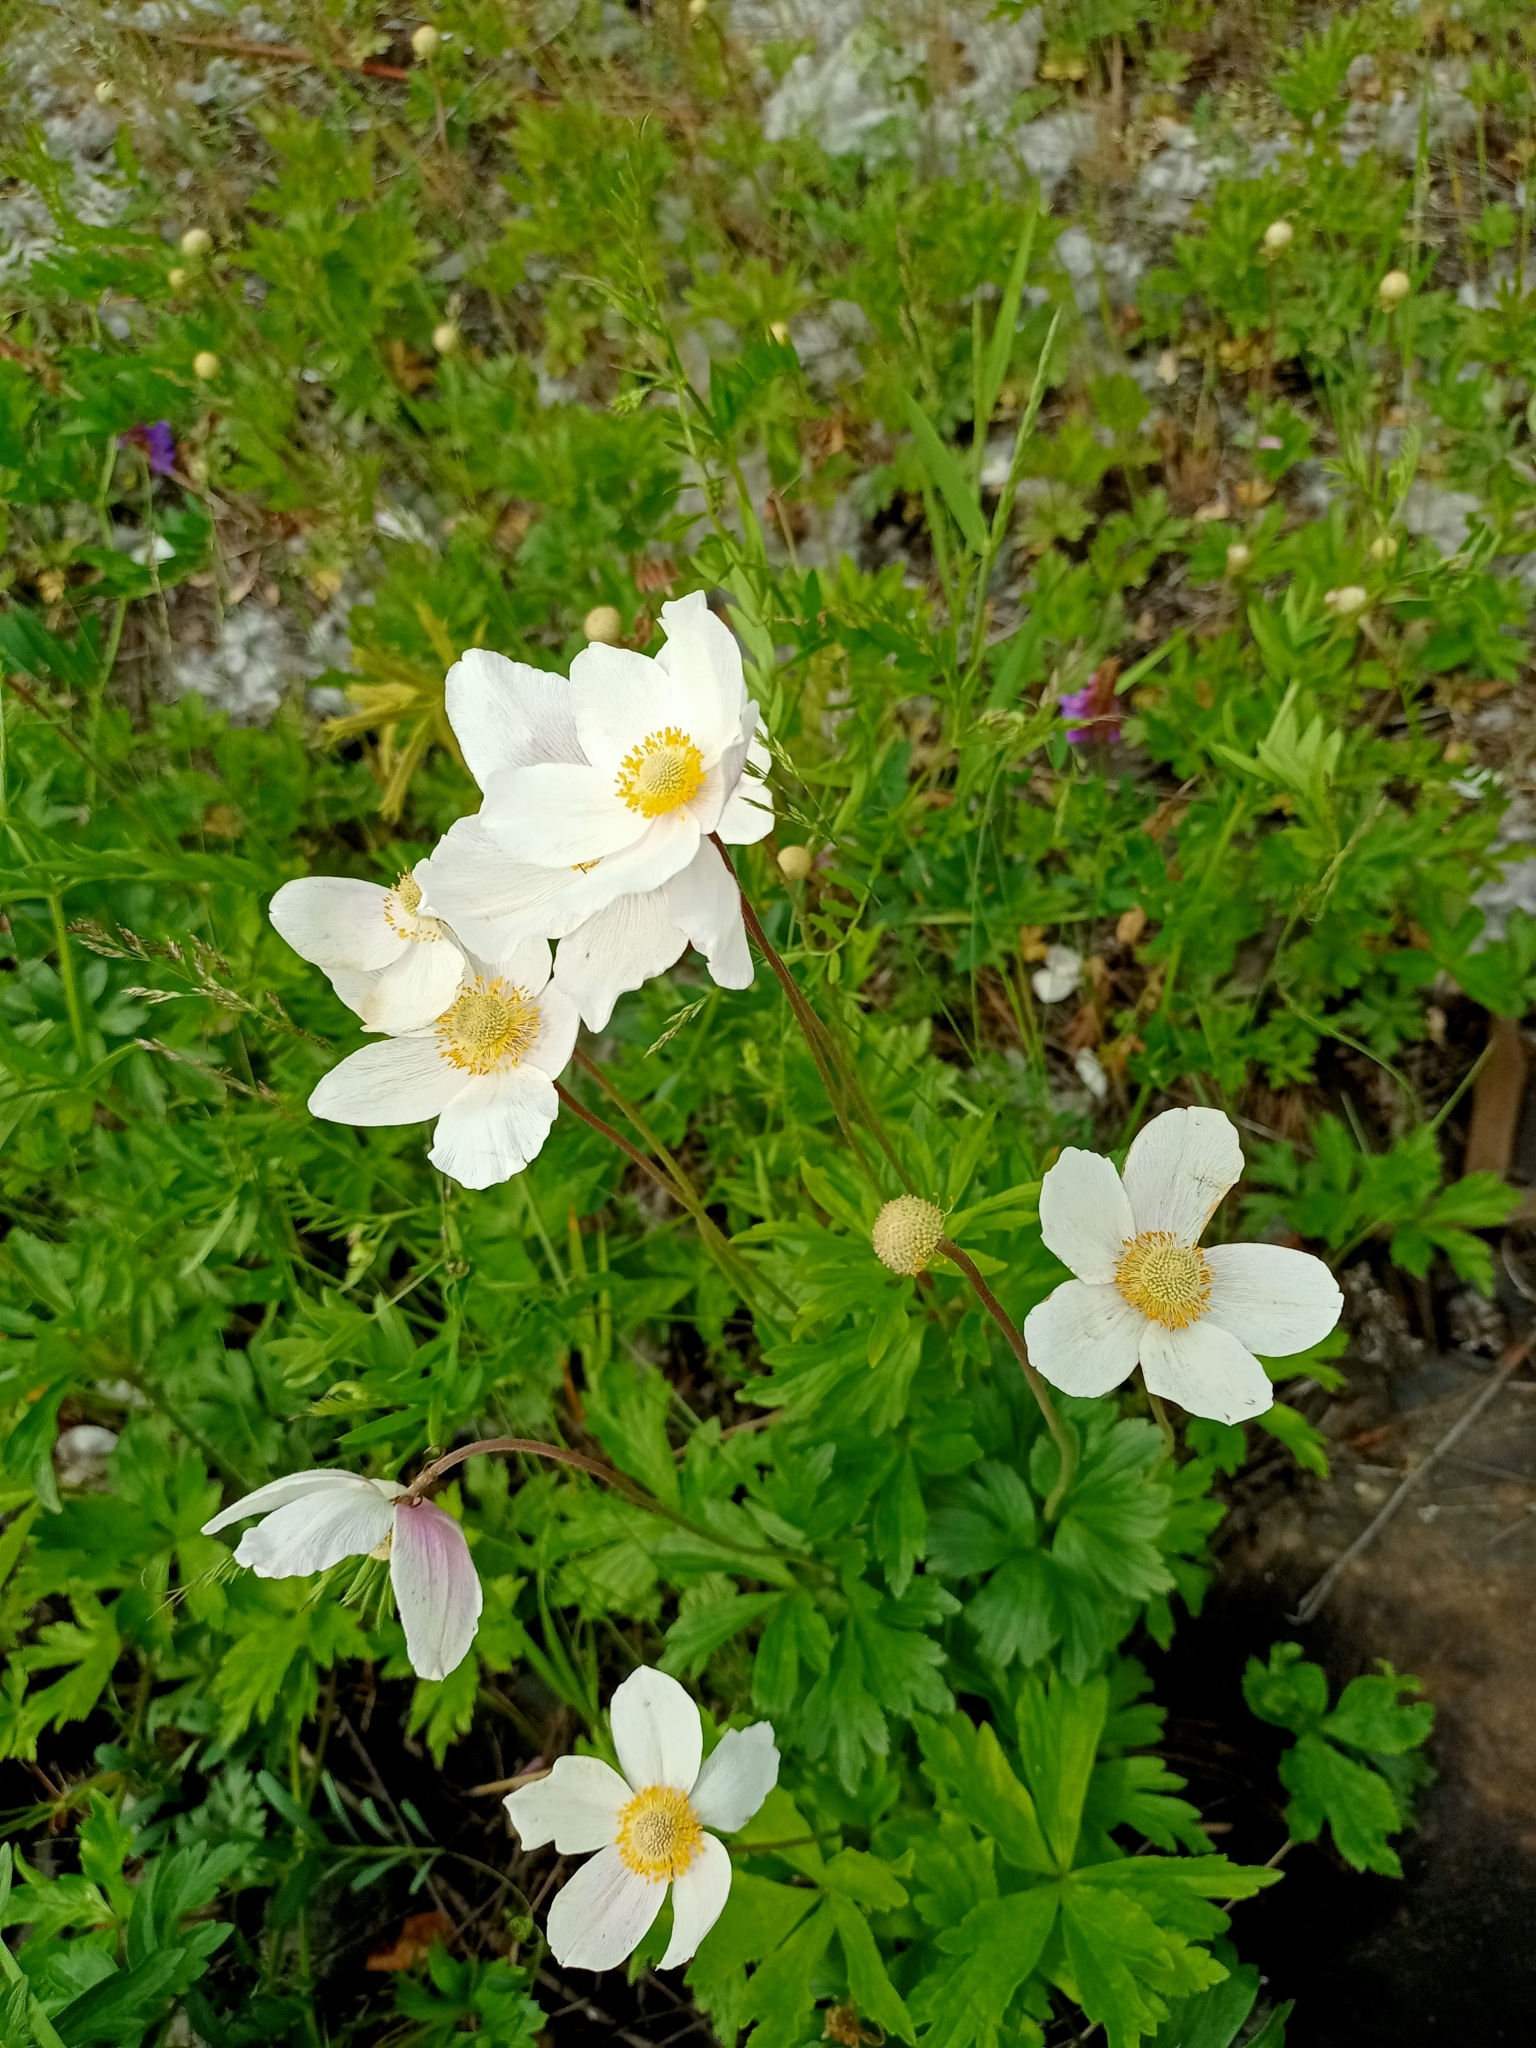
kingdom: Plantae
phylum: Tracheophyta
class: Magnoliopsida
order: Ranunculales
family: Ranunculaceae
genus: Anemone
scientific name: Anemone sylvestris
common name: Snowdrop anemone
